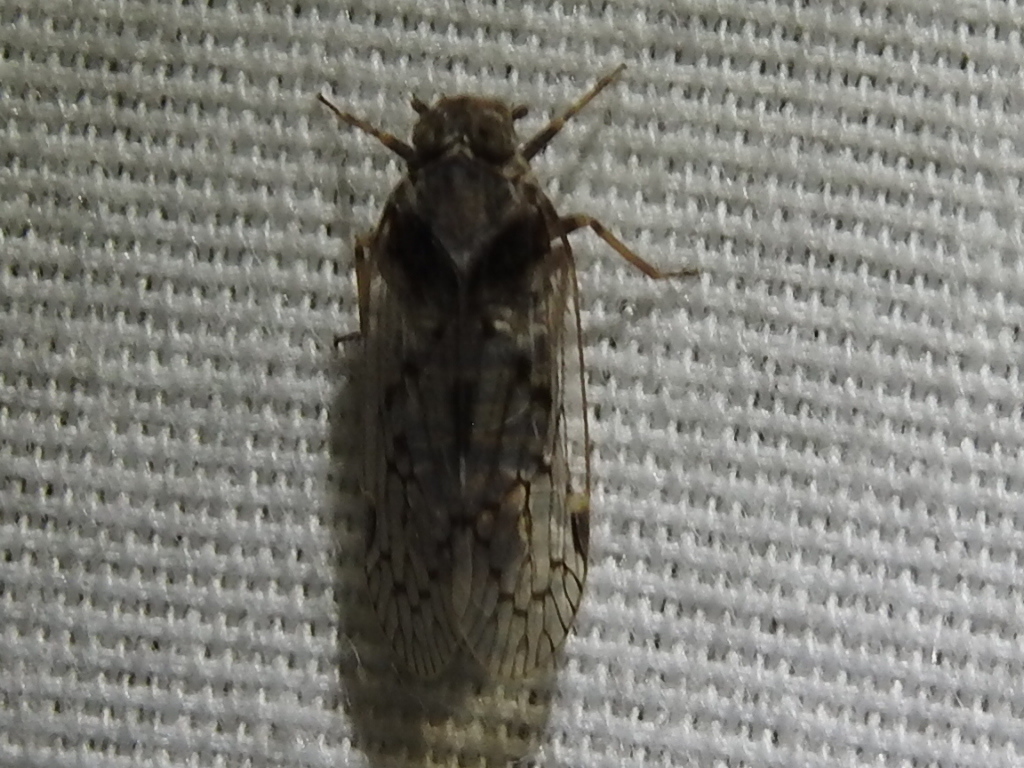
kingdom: Animalia
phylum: Arthropoda
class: Insecta
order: Hemiptera
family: Cixiidae
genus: Melanoliarus
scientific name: Melanoliarus aridus
